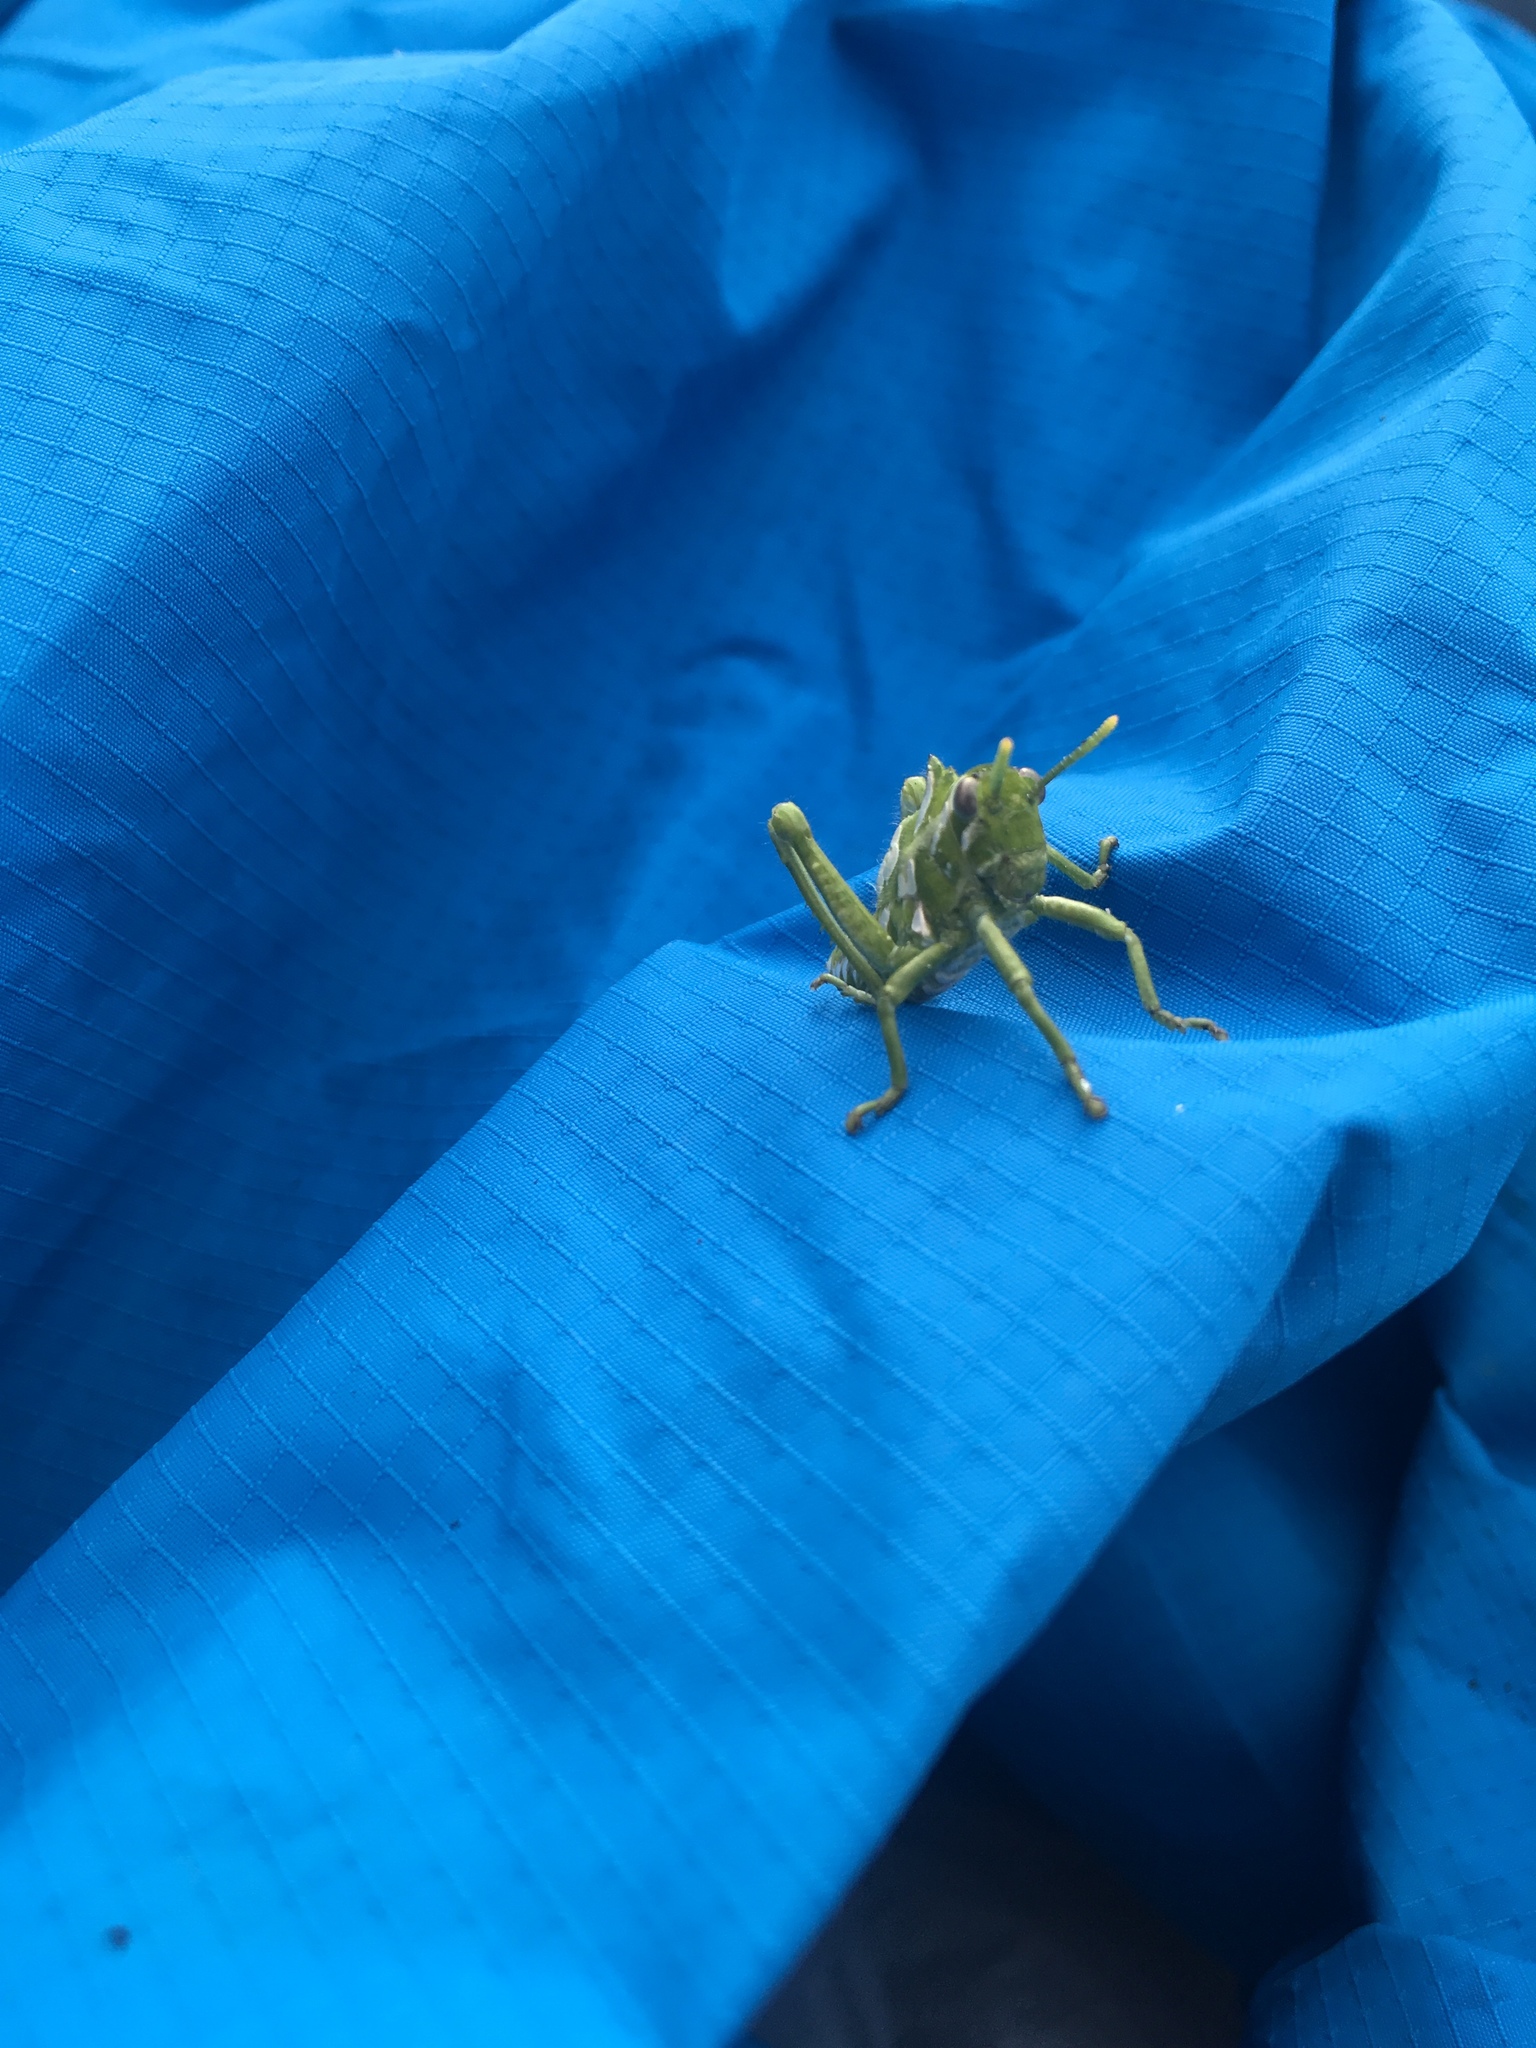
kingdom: Animalia
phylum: Arthropoda
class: Insecta
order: Orthoptera
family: Thericleidae
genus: Thericlesiella
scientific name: Thericlesiella meridionalis
